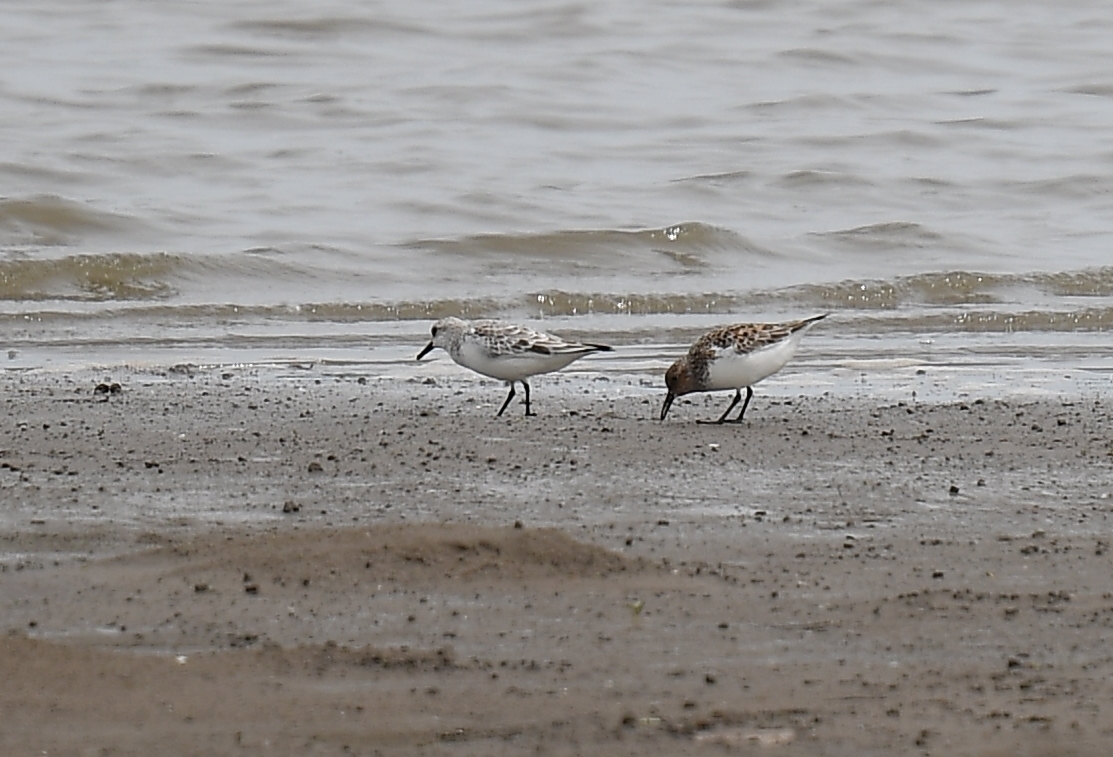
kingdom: Animalia
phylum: Chordata
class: Aves
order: Charadriiformes
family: Scolopacidae
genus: Calidris
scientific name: Calidris alba
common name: Sanderling
